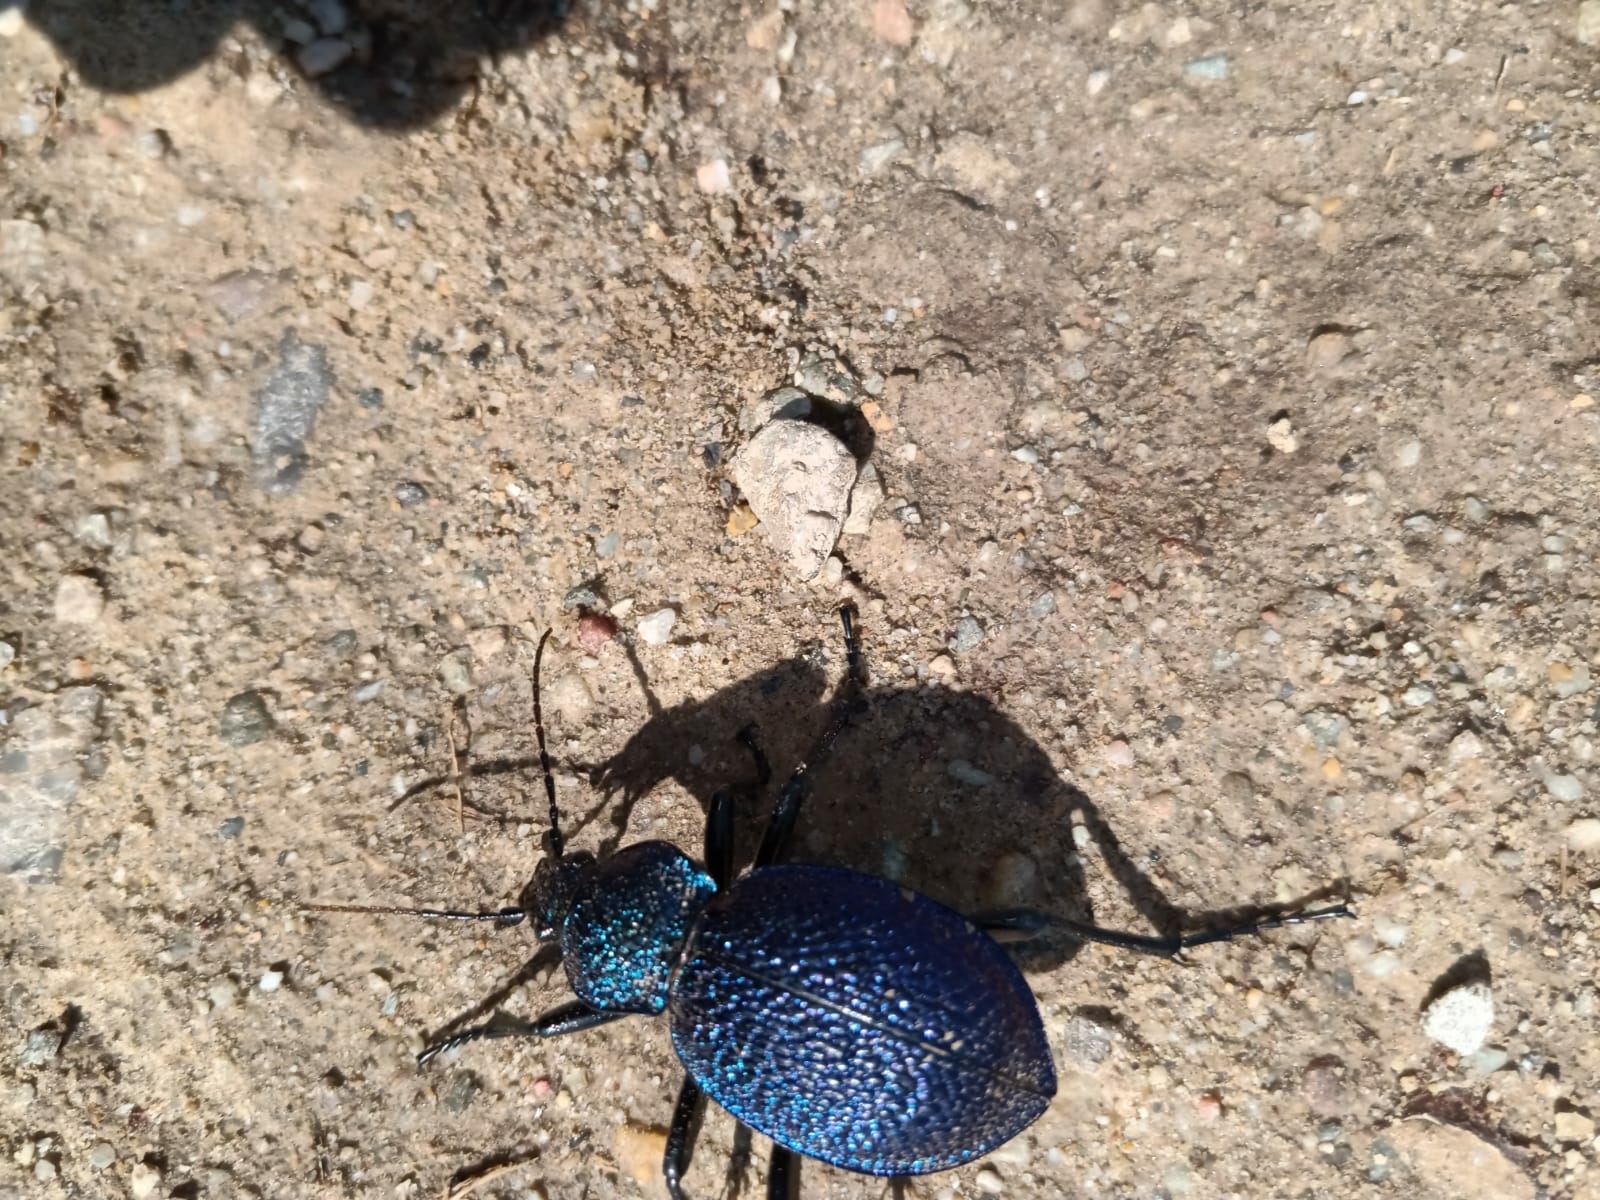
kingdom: Animalia
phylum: Arthropoda
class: Insecta
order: Coleoptera
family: Carabidae
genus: Carabus
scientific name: Carabus scabrosus
